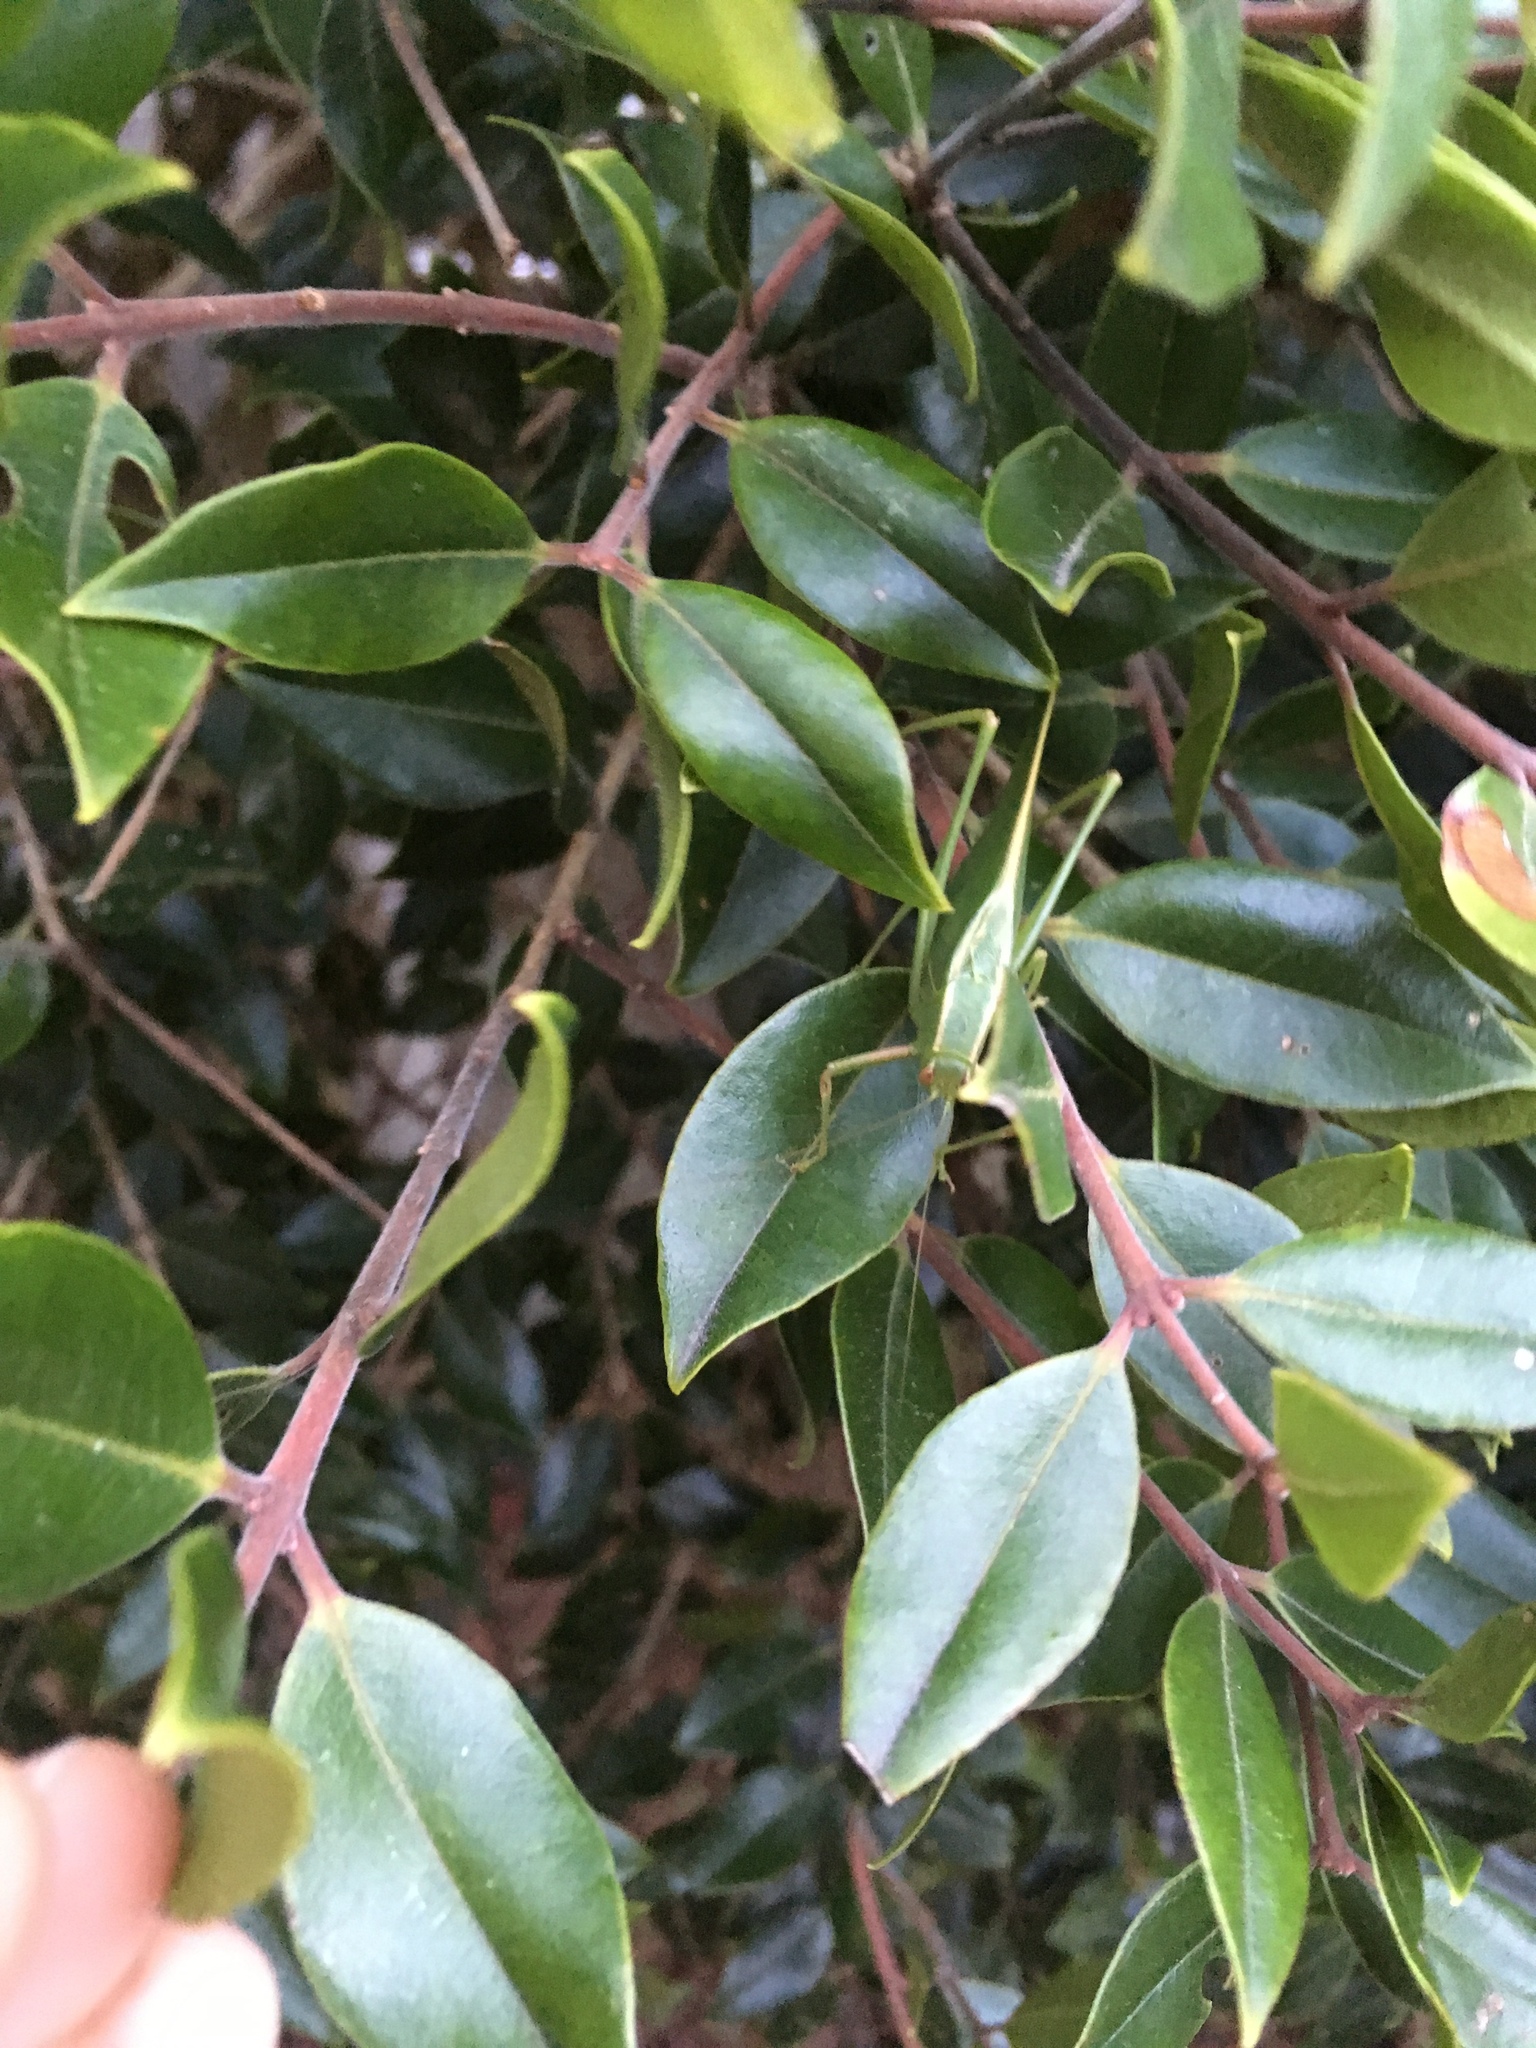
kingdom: Animalia
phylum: Arthropoda
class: Insecta
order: Orthoptera
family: Tettigoniidae
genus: Caedicia
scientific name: Caedicia simplex
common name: Common garden katydid
